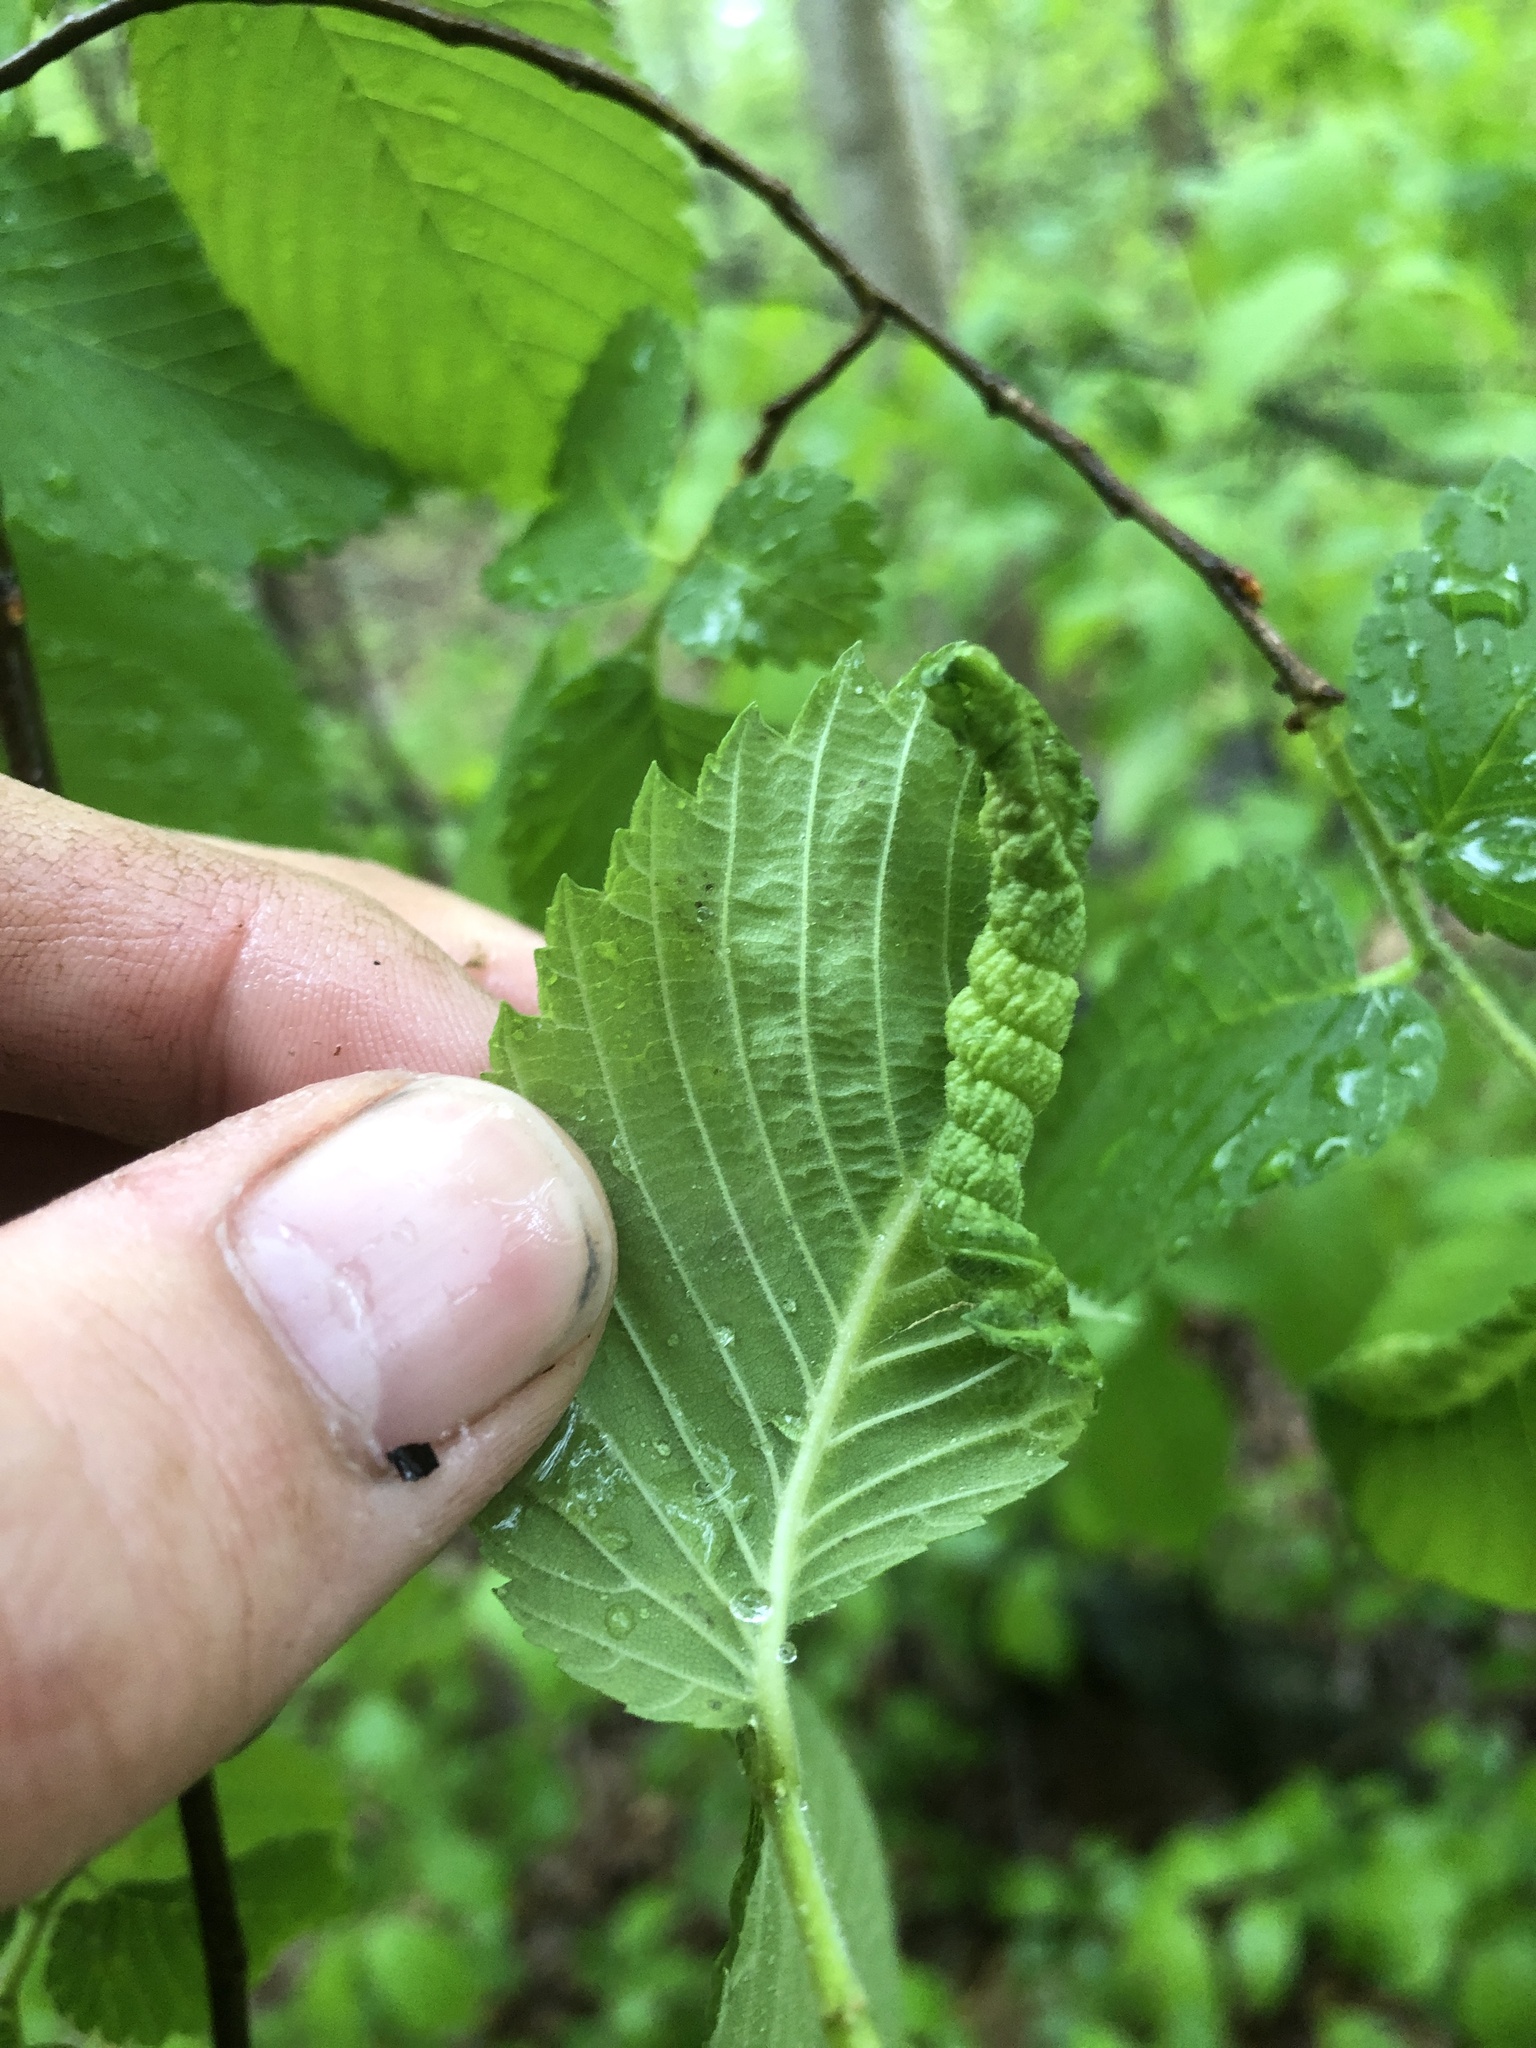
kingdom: Animalia
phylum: Arthropoda
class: Insecta
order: Hemiptera
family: Aphididae
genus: Eriosoma
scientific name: Eriosoma americanum
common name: Woolly elm aphid
